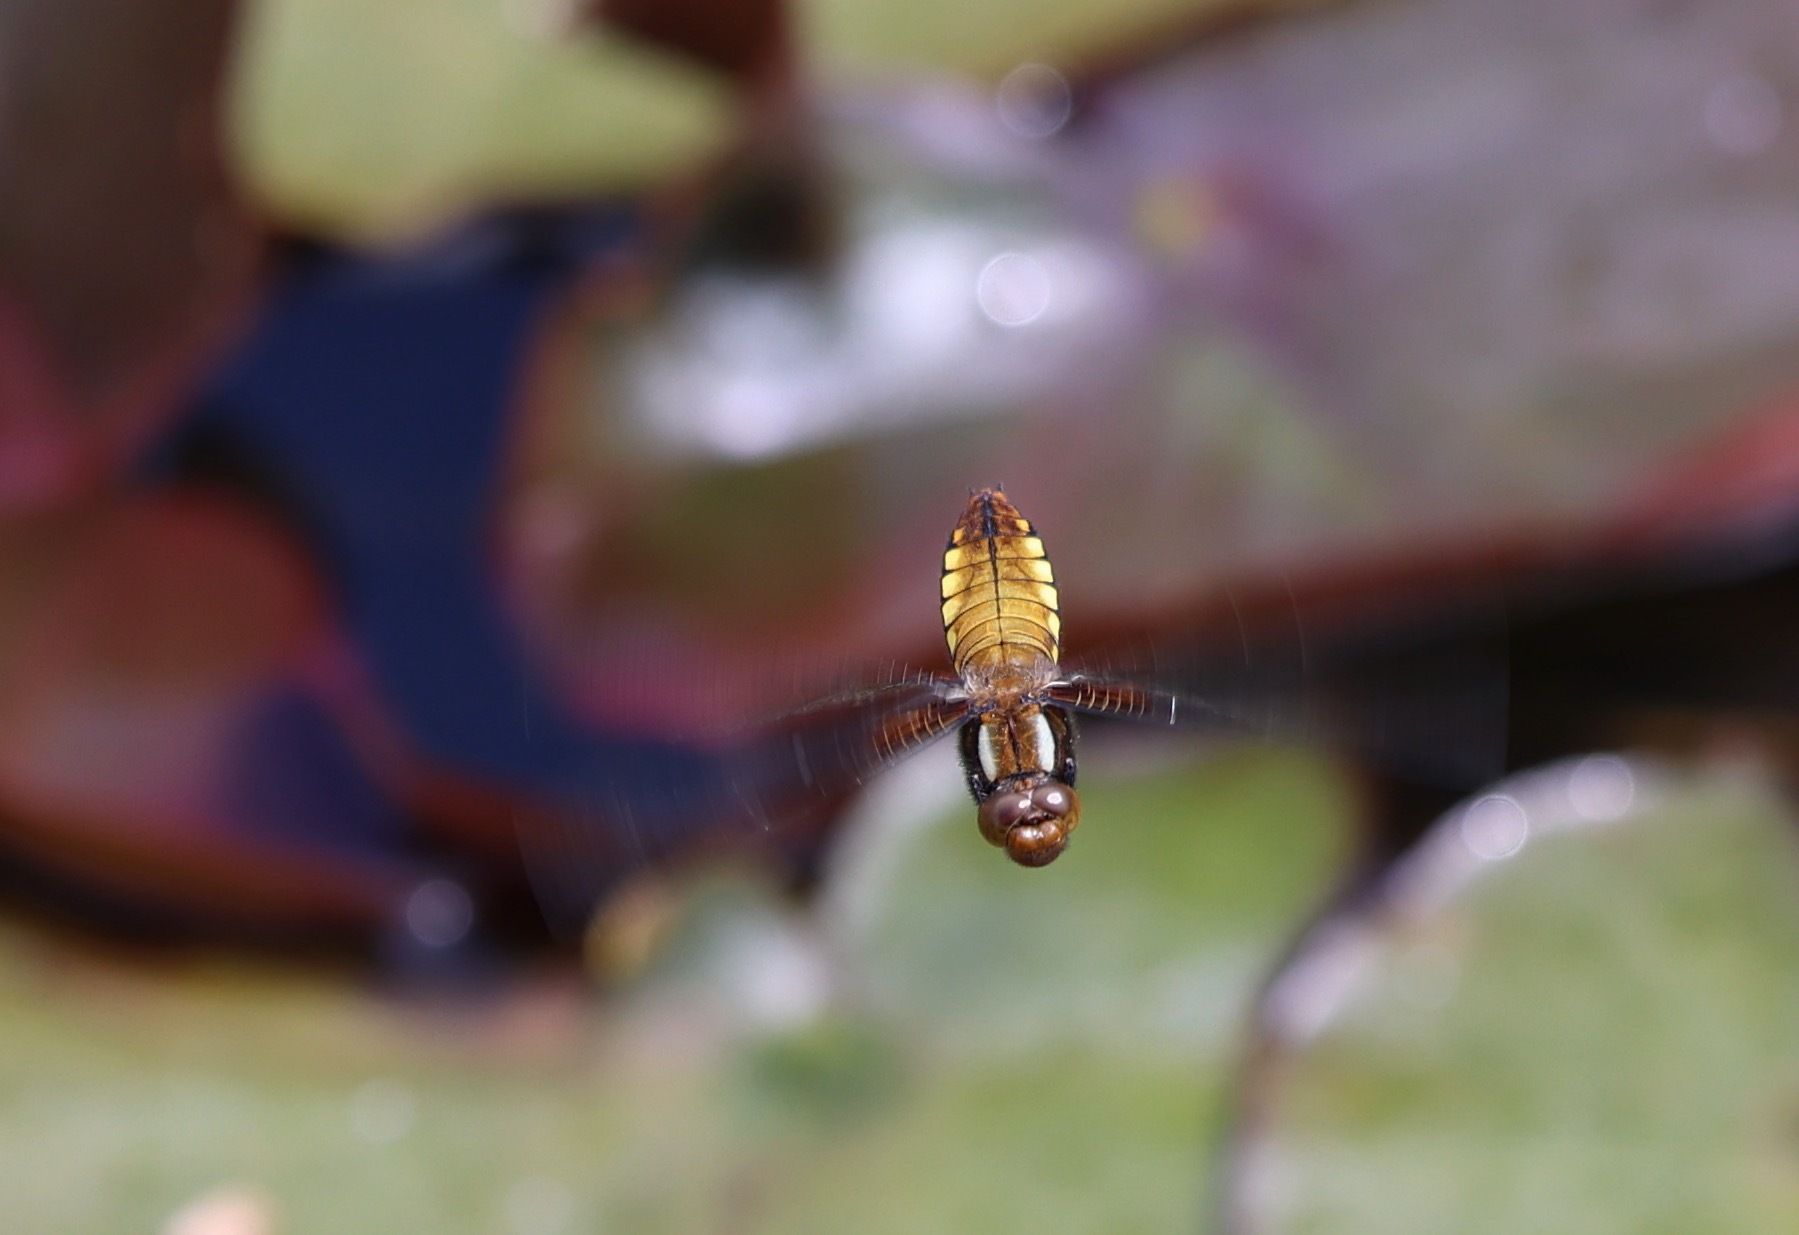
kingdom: Animalia
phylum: Arthropoda
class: Insecta
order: Odonata
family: Libellulidae
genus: Libellula
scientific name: Libellula depressa
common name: Broad-bodied chaser
